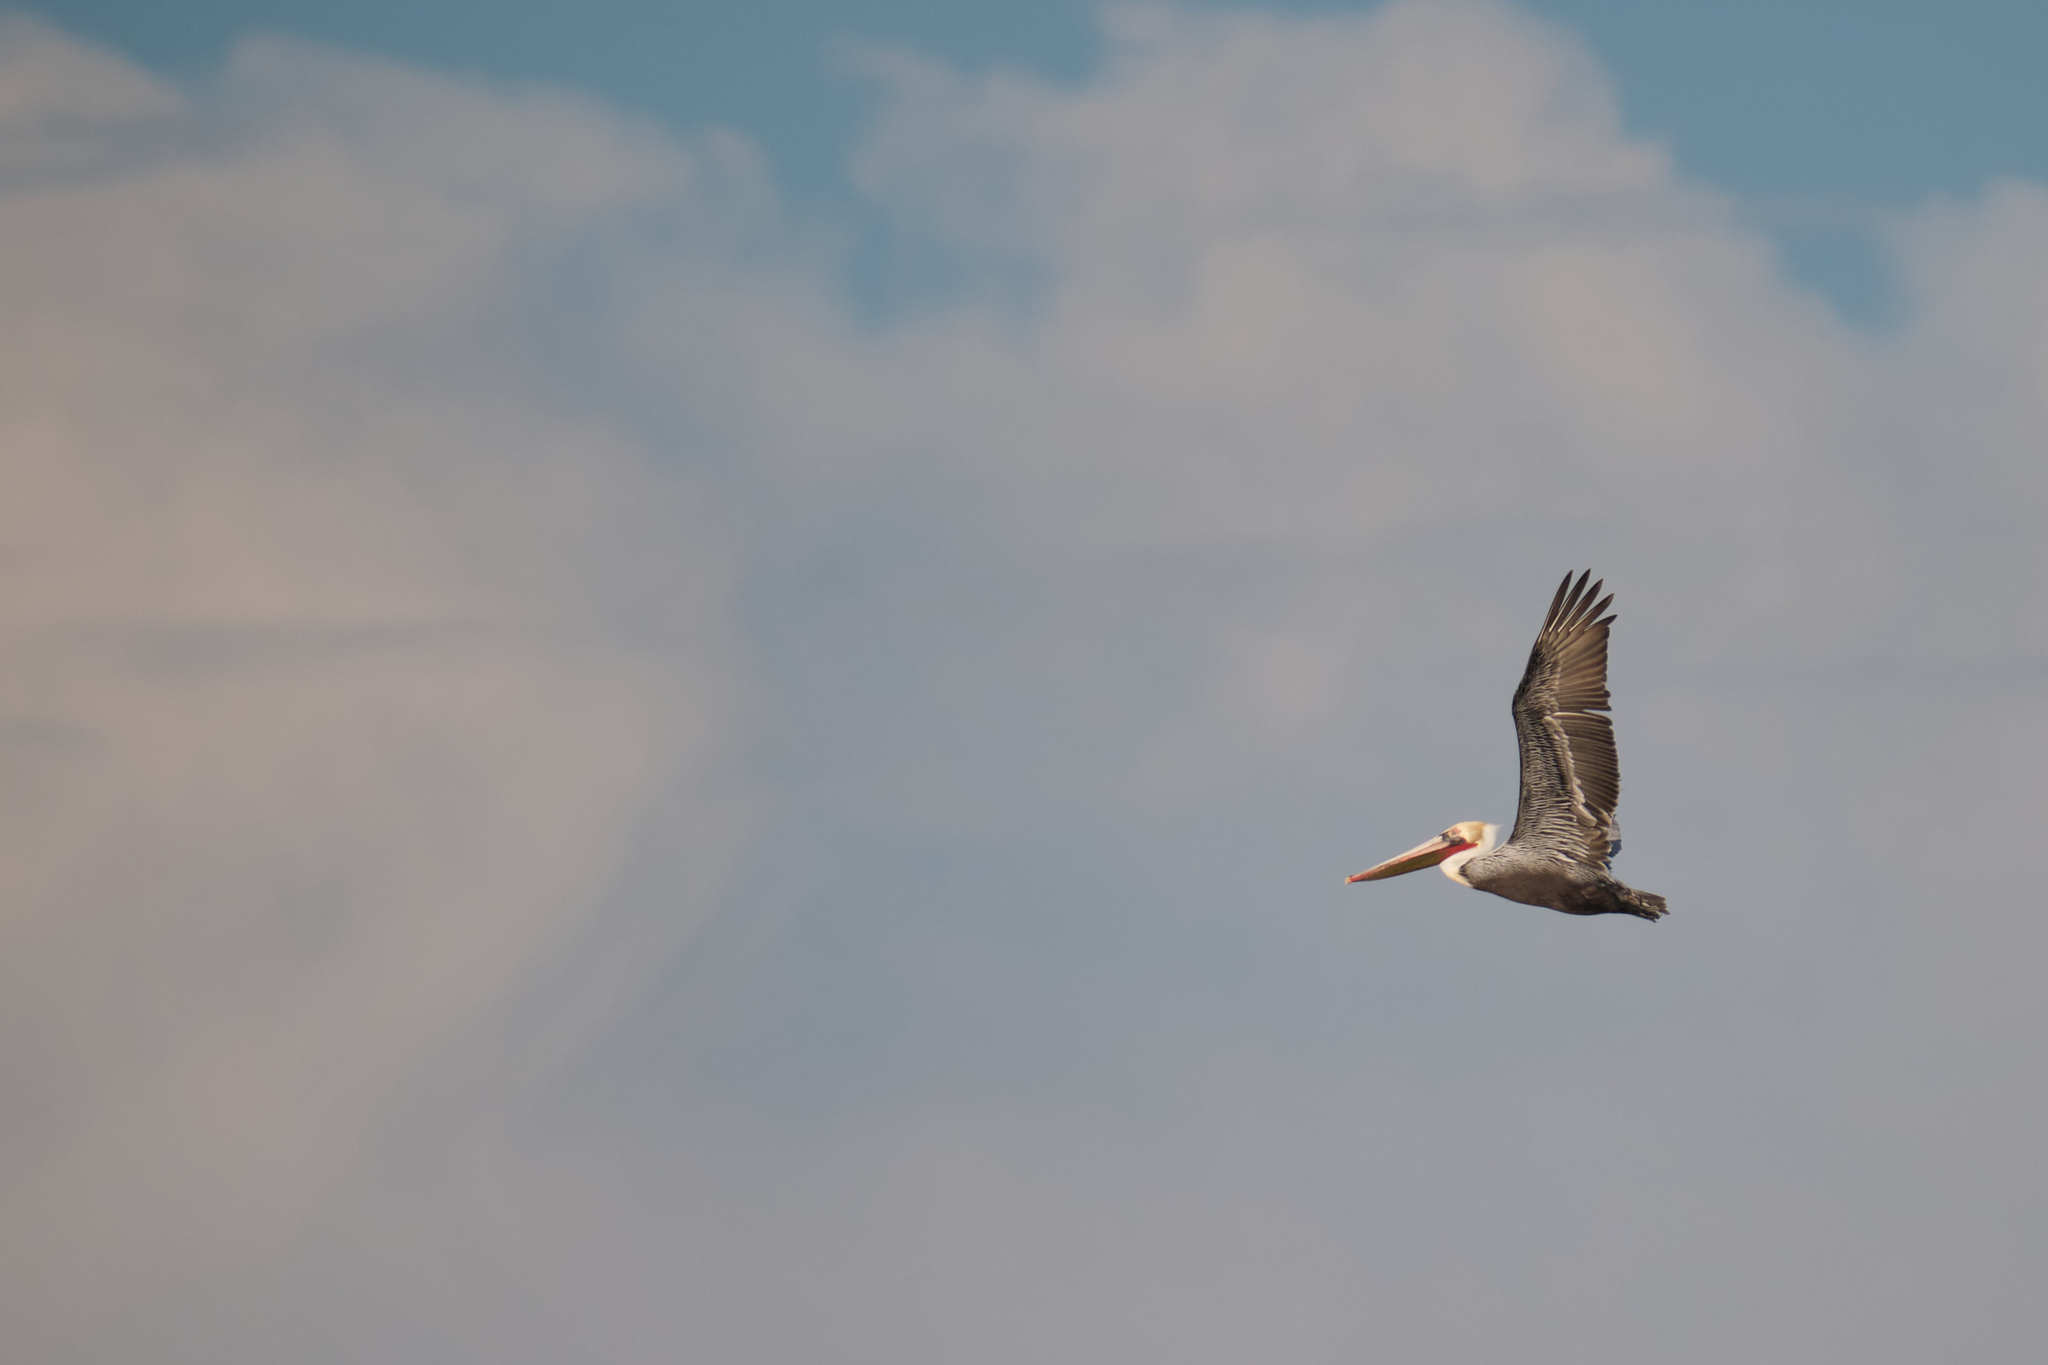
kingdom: Animalia
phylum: Chordata
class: Aves
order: Pelecaniformes
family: Pelecanidae
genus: Pelecanus
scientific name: Pelecanus occidentalis
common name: Brown pelican
